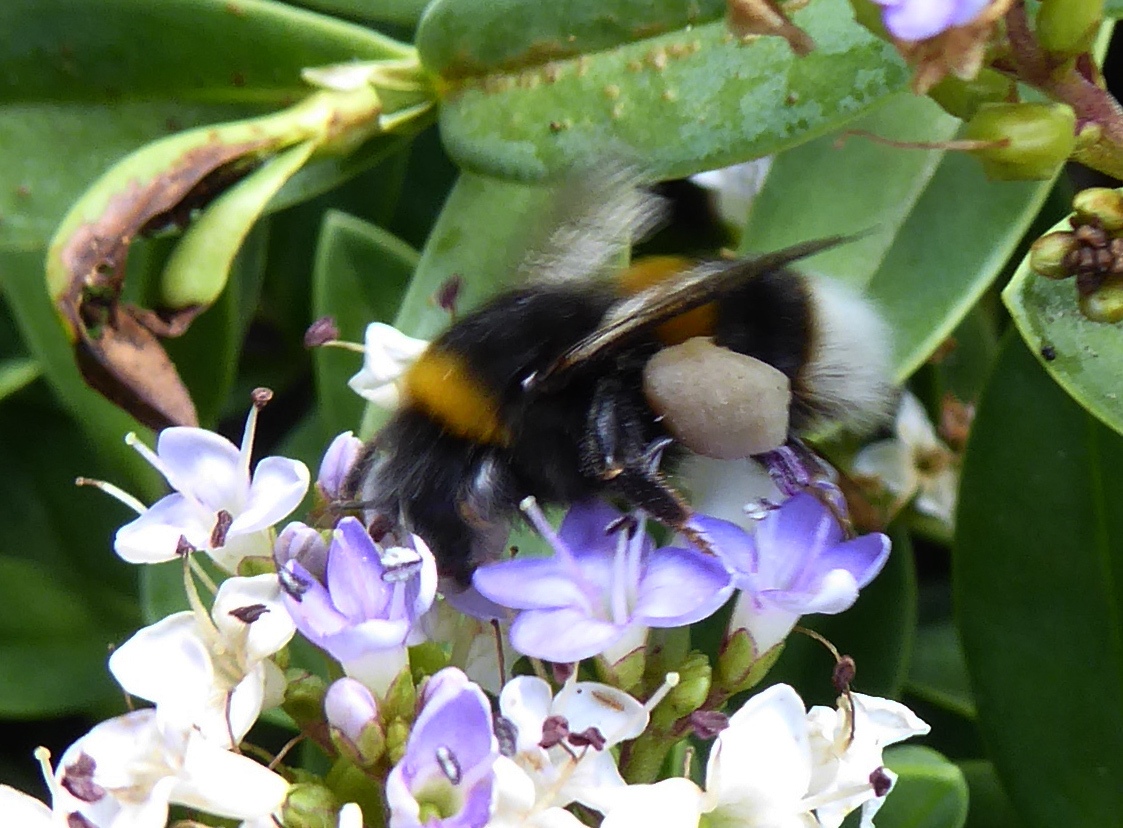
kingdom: Animalia
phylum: Arthropoda
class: Insecta
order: Hymenoptera
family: Apidae
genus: Bombus
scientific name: Bombus terrestris
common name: Buff-tailed bumblebee
